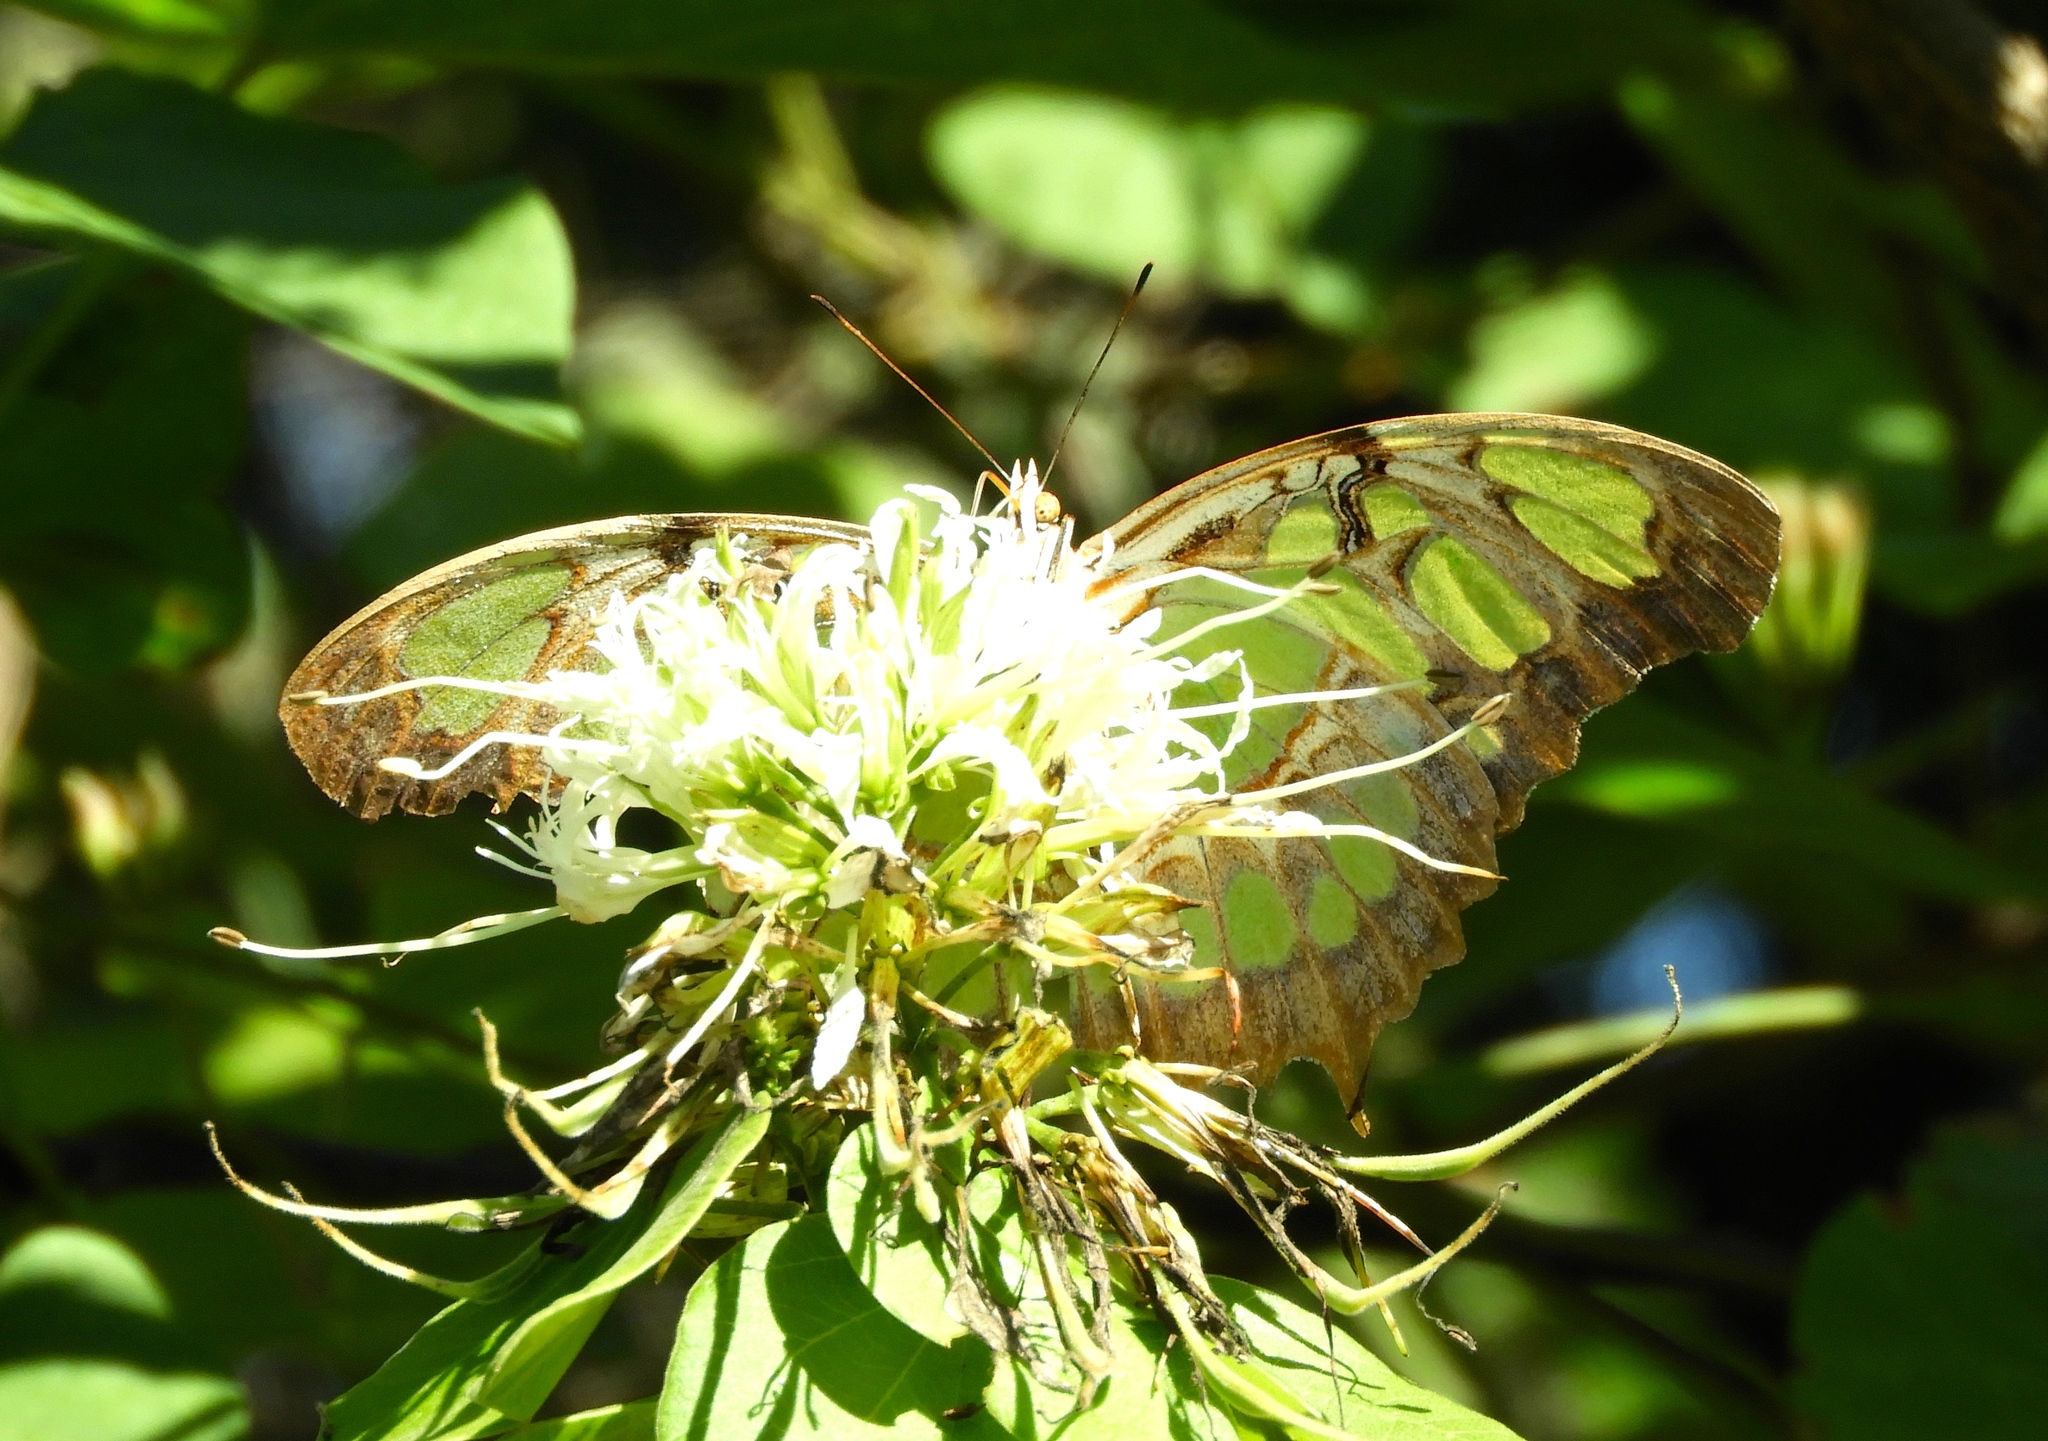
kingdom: Animalia
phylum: Arthropoda
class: Insecta
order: Lepidoptera
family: Nymphalidae
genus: Siproeta
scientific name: Siproeta stelenes
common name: Malachite
